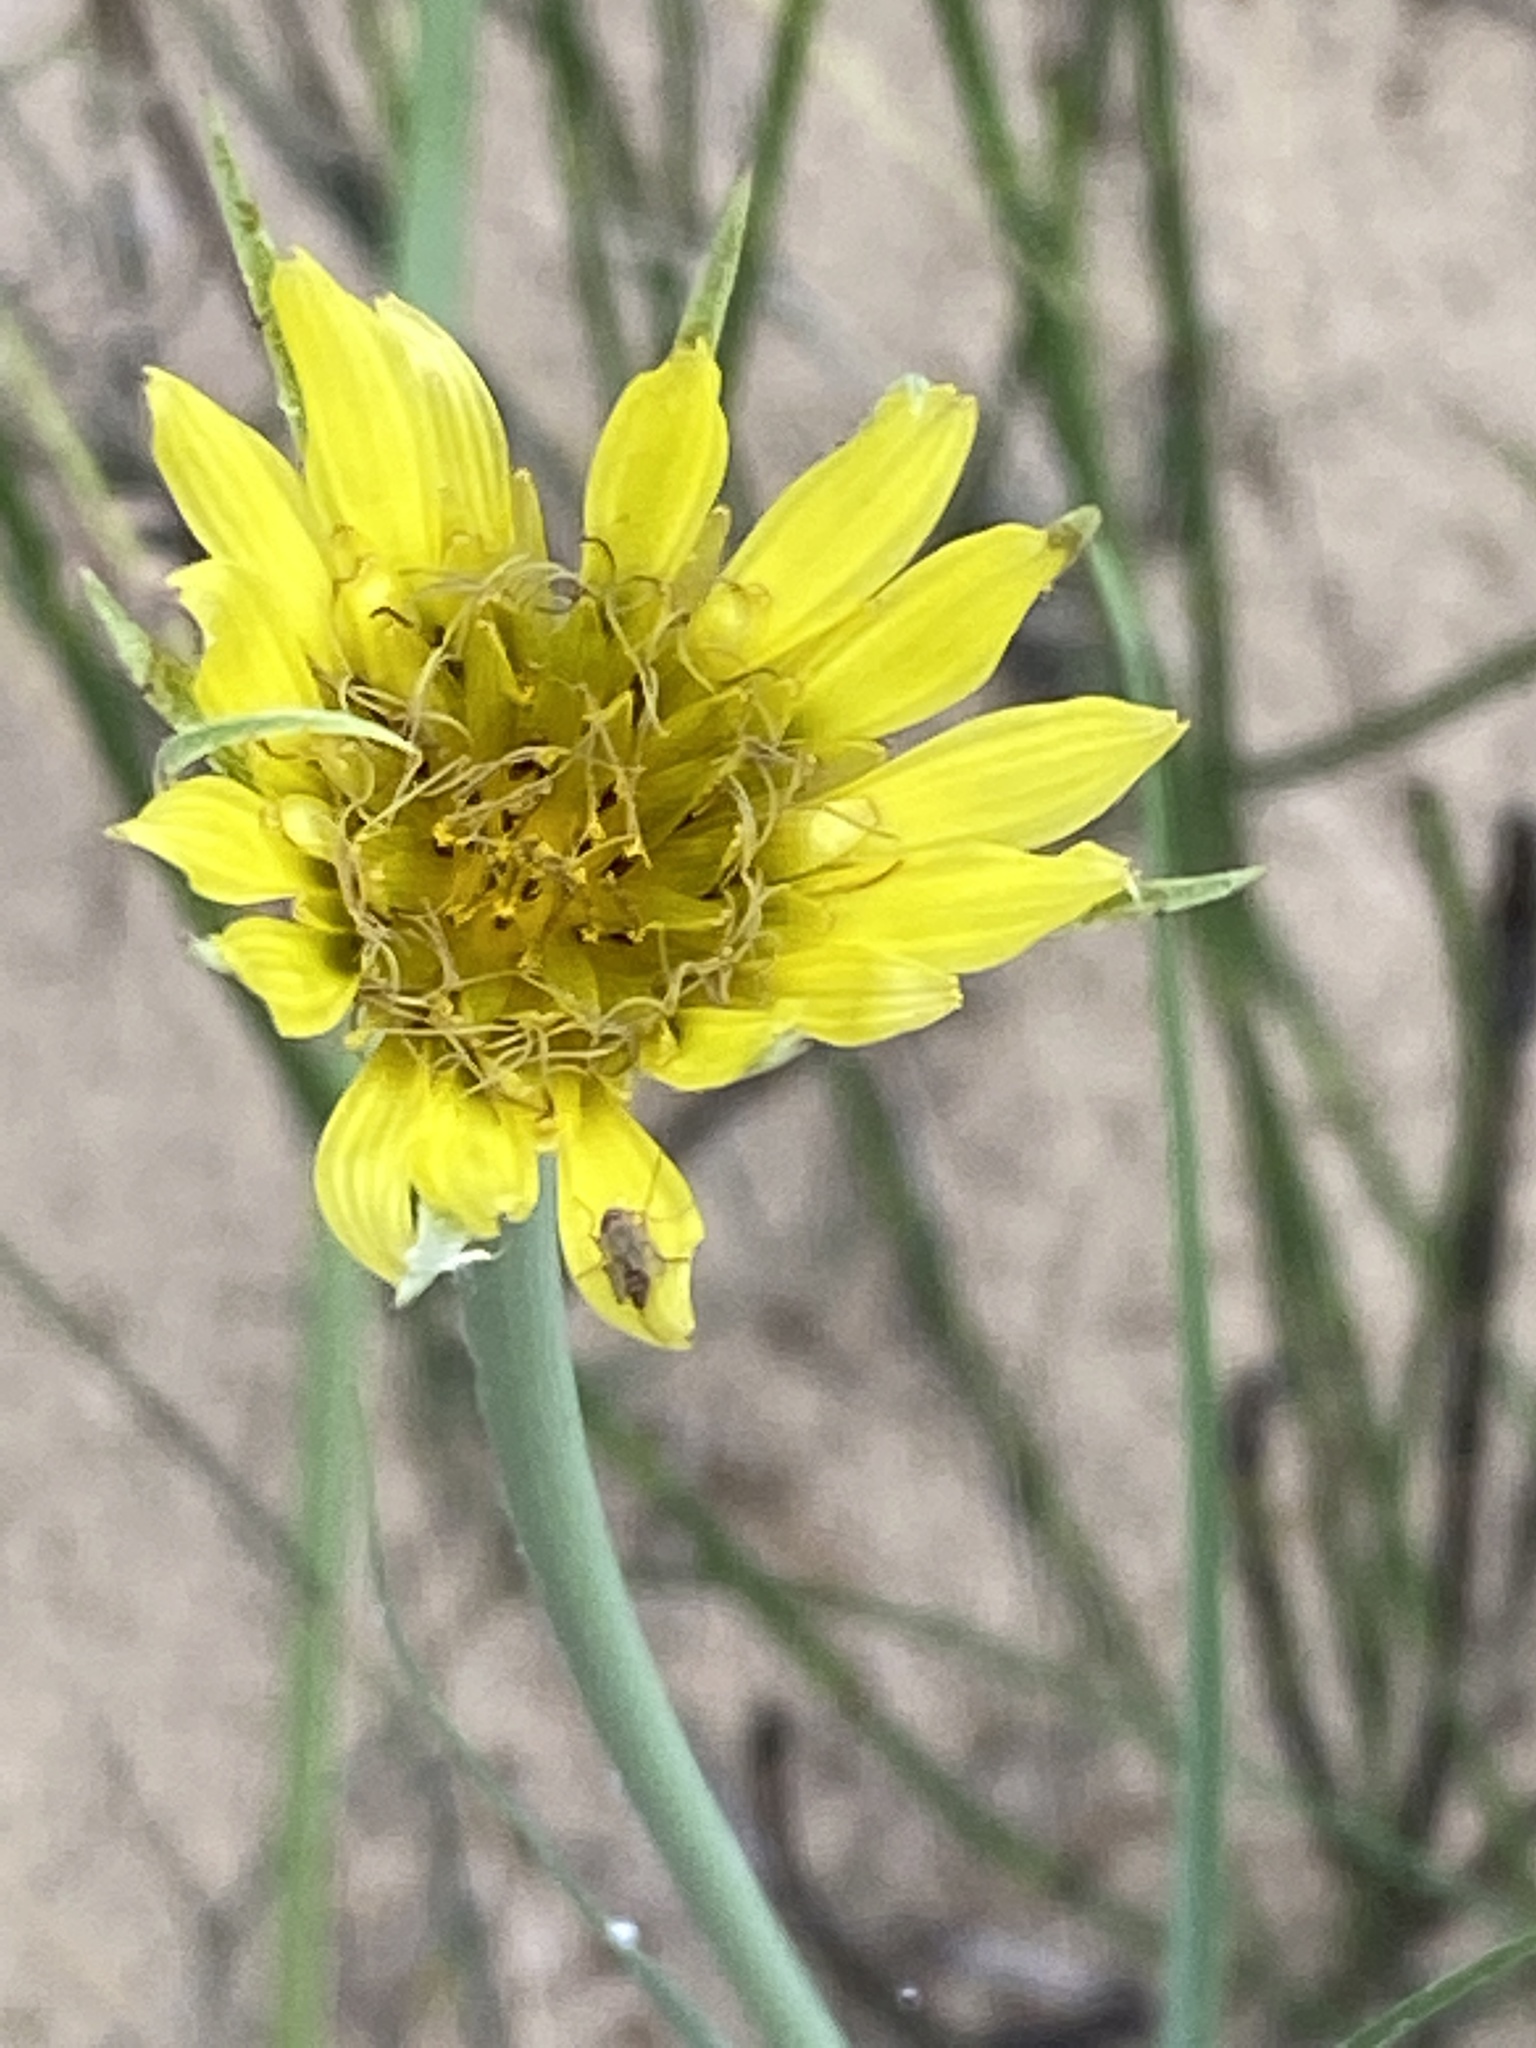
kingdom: Plantae
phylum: Tracheophyta
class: Magnoliopsida
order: Asterales
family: Asteraceae
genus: Tragopogon
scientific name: Tragopogon dubius
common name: Yellow salsify
